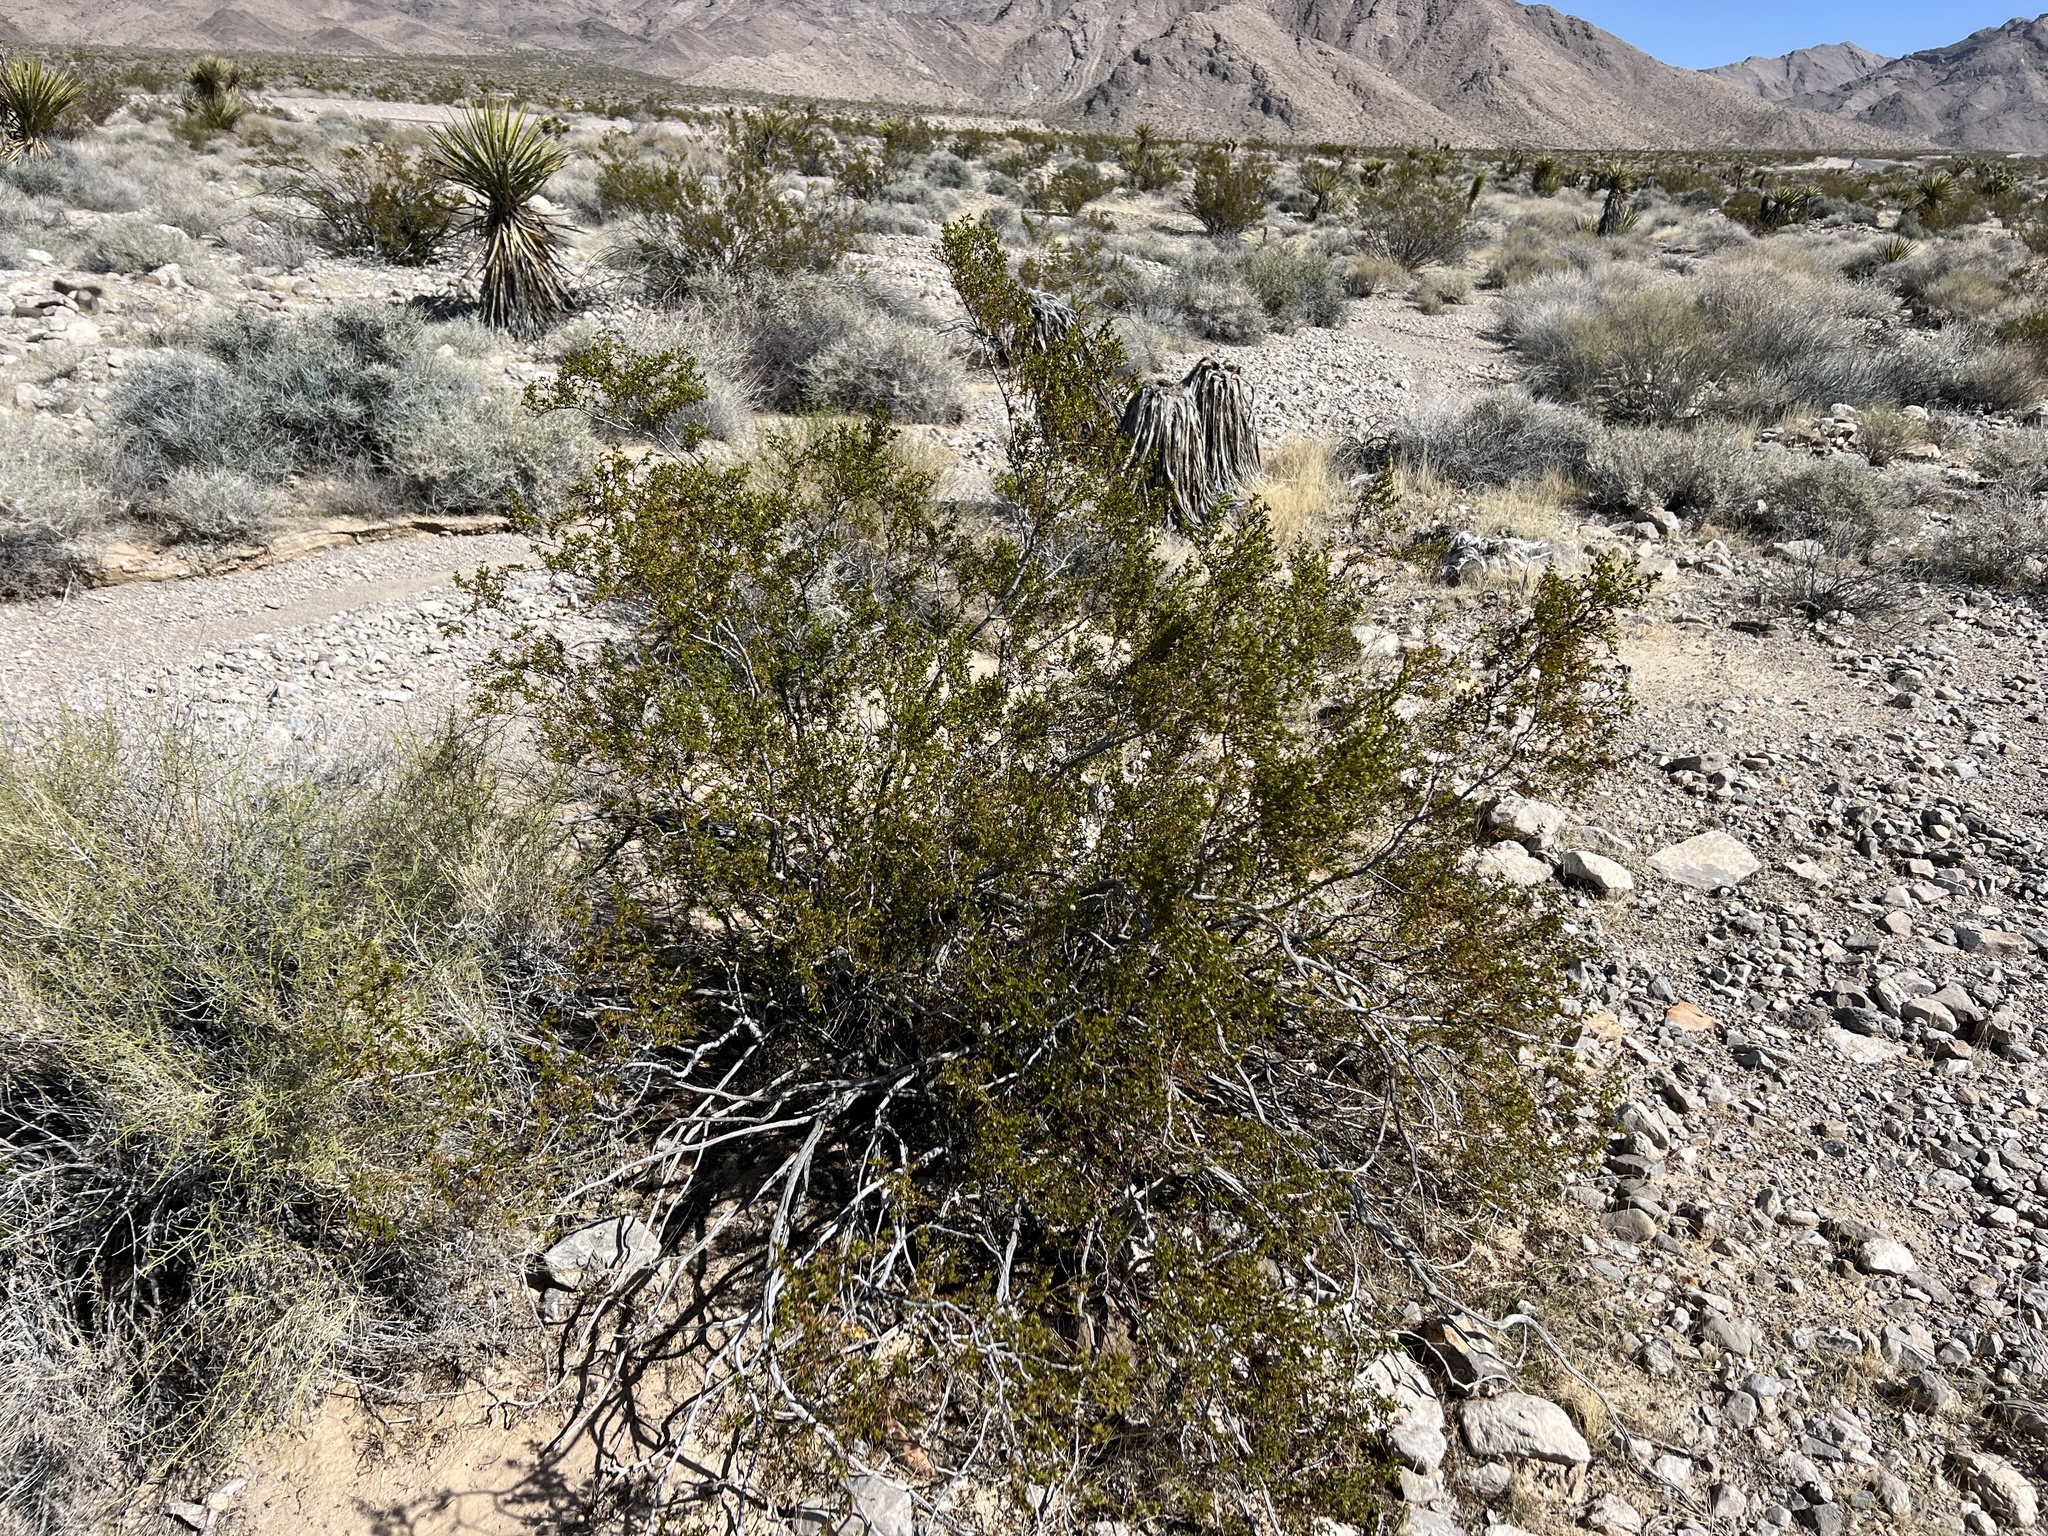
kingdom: Plantae
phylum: Tracheophyta
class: Magnoliopsida
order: Zygophyllales
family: Zygophyllaceae
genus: Larrea
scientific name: Larrea tridentata
